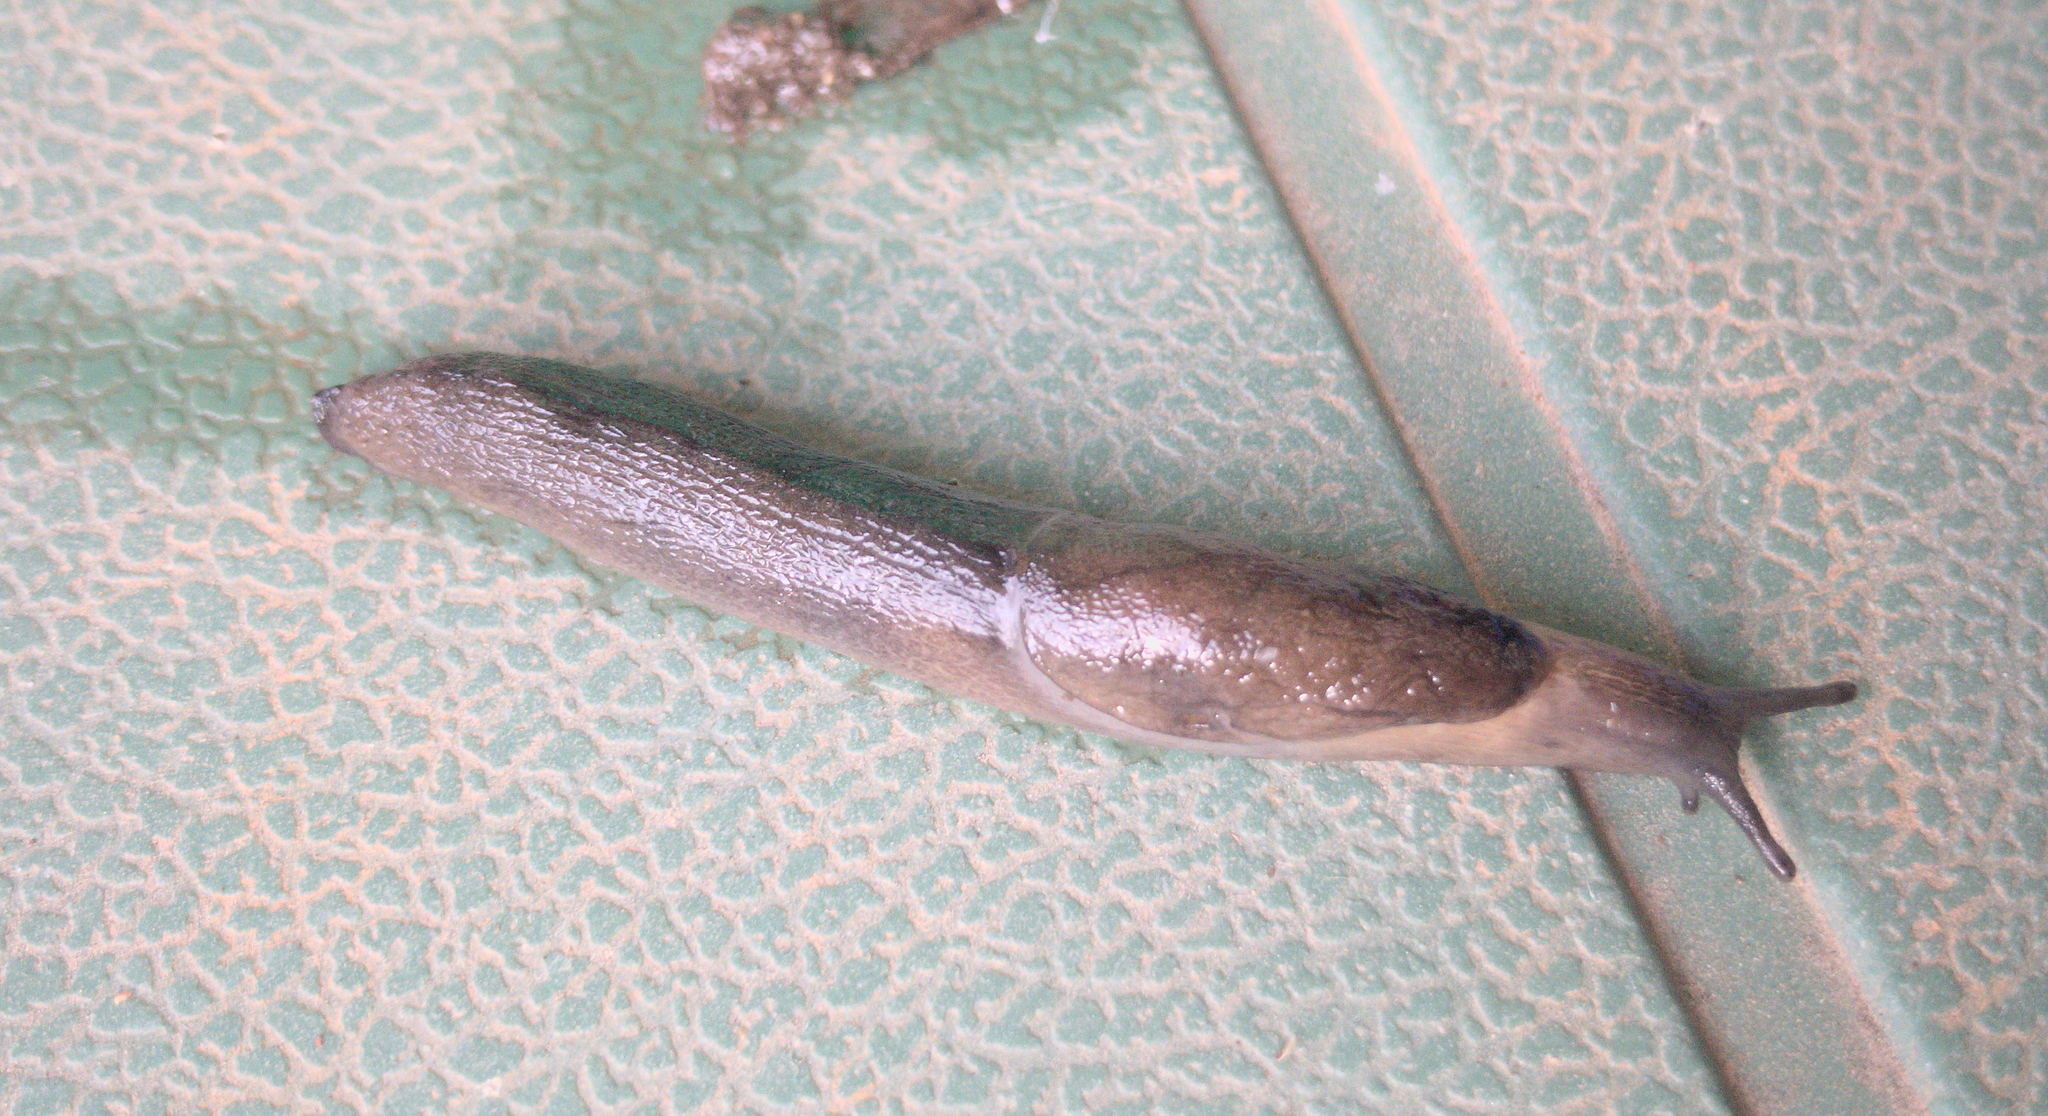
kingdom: Animalia
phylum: Mollusca
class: Gastropoda
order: Stylommatophora
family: Milacidae
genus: Milax
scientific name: Milax gagates
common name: Greenhouse slug
